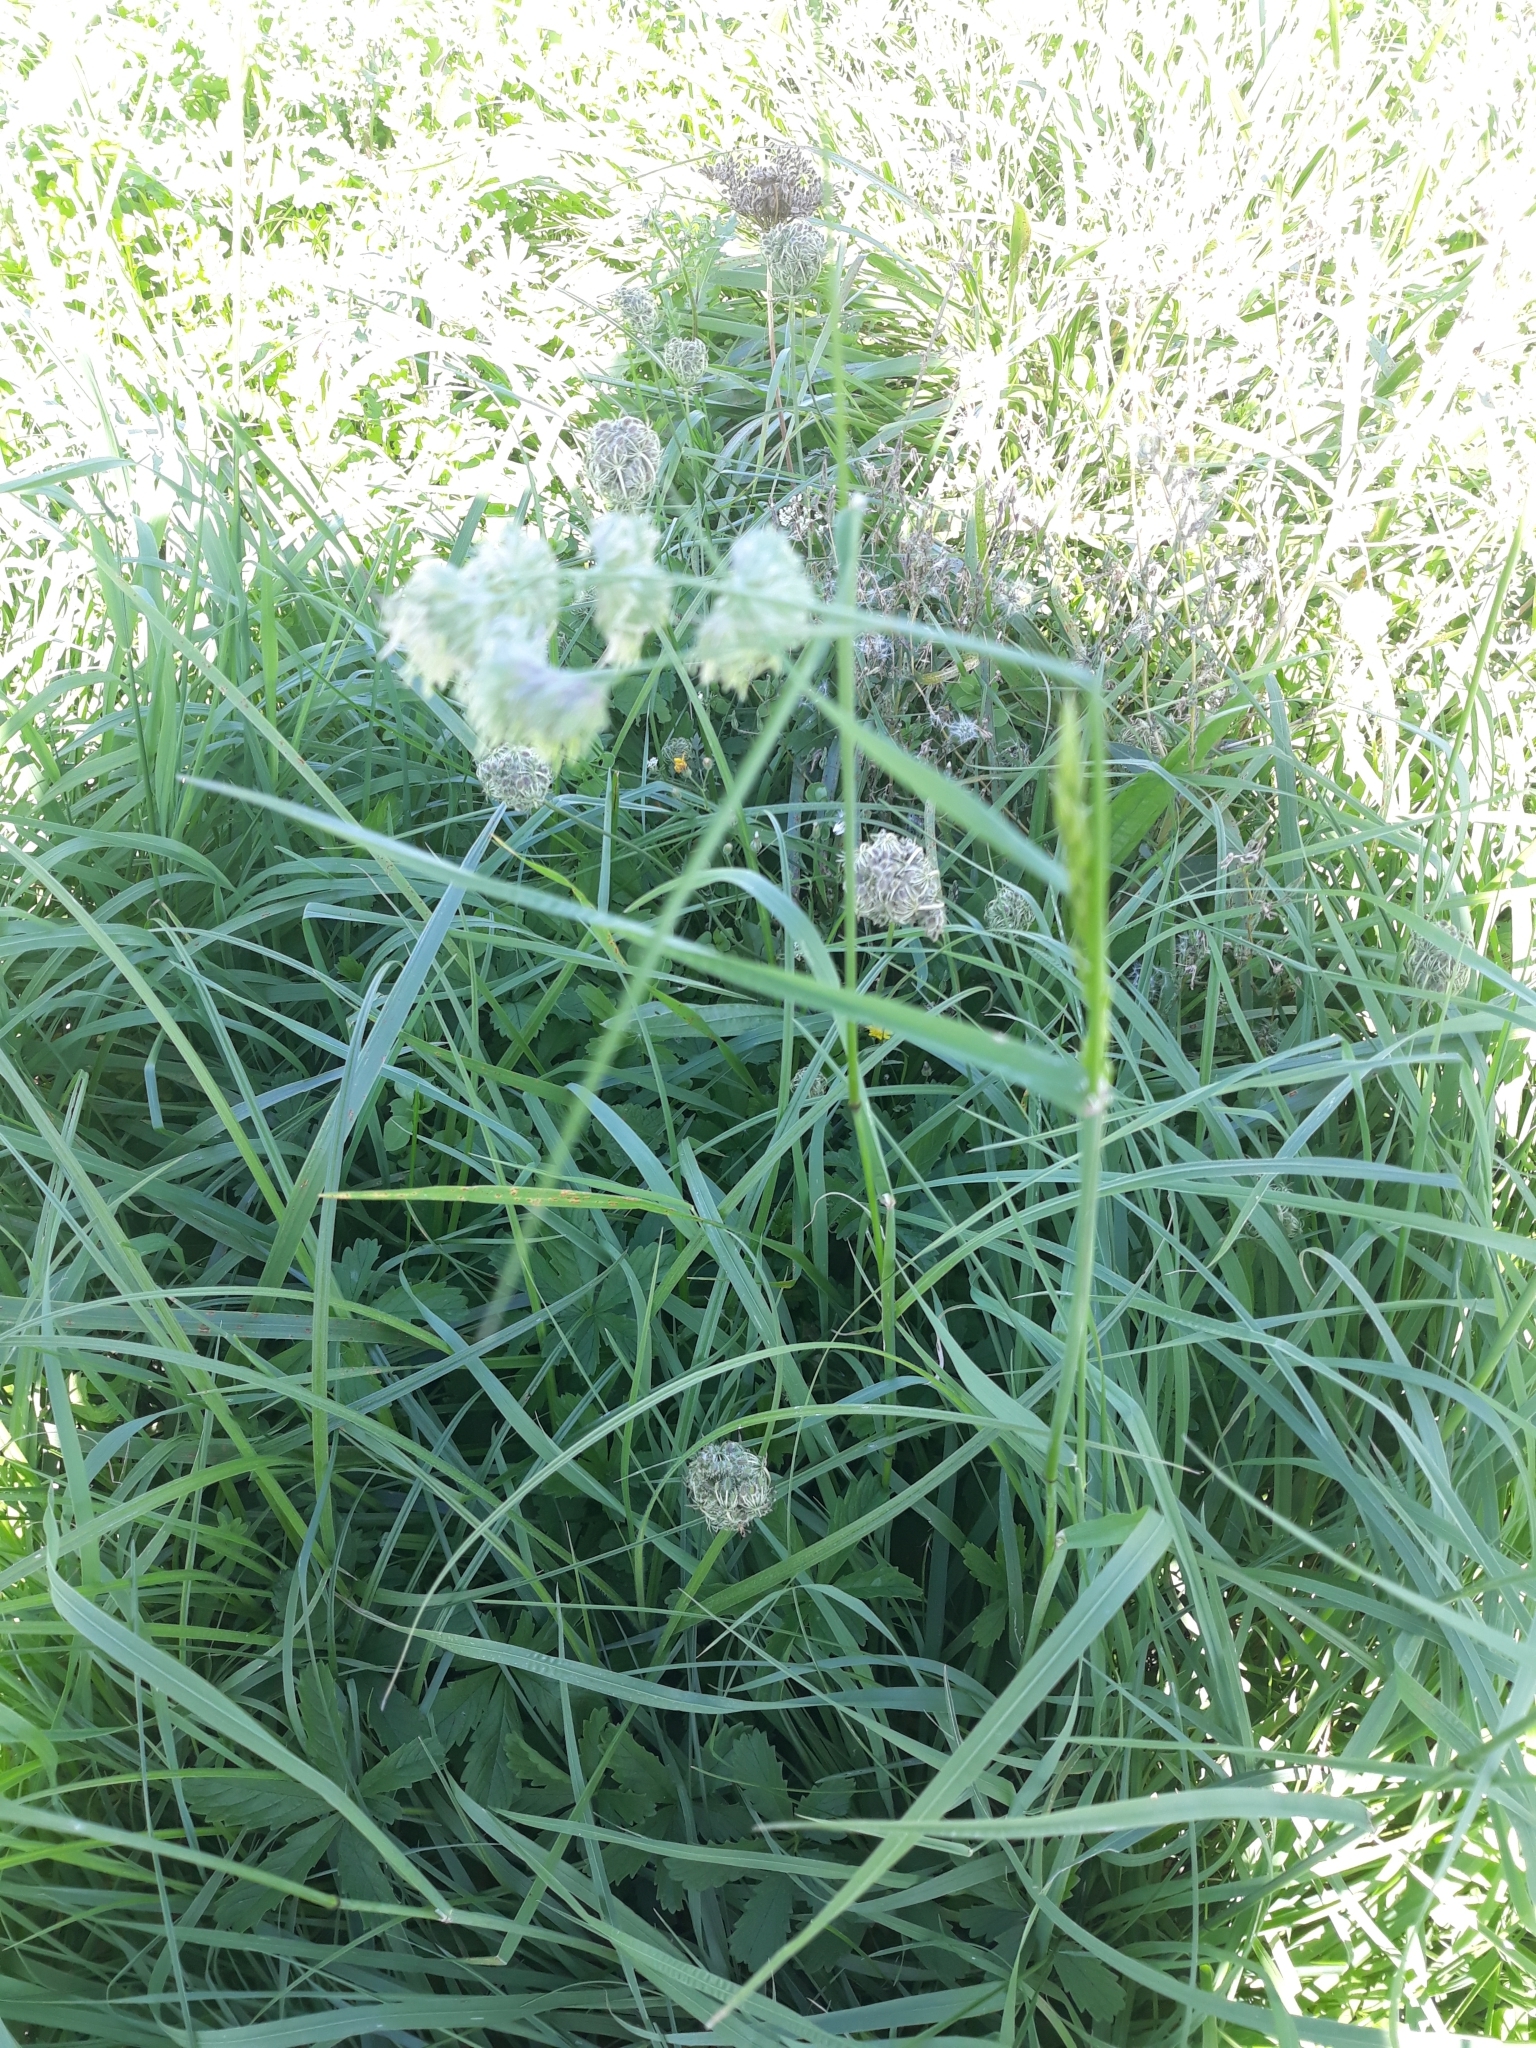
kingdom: Plantae
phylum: Tracheophyta
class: Liliopsida
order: Poales
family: Poaceae
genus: Dactylis
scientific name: Dactylis glomerata
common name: Orchardgrass
